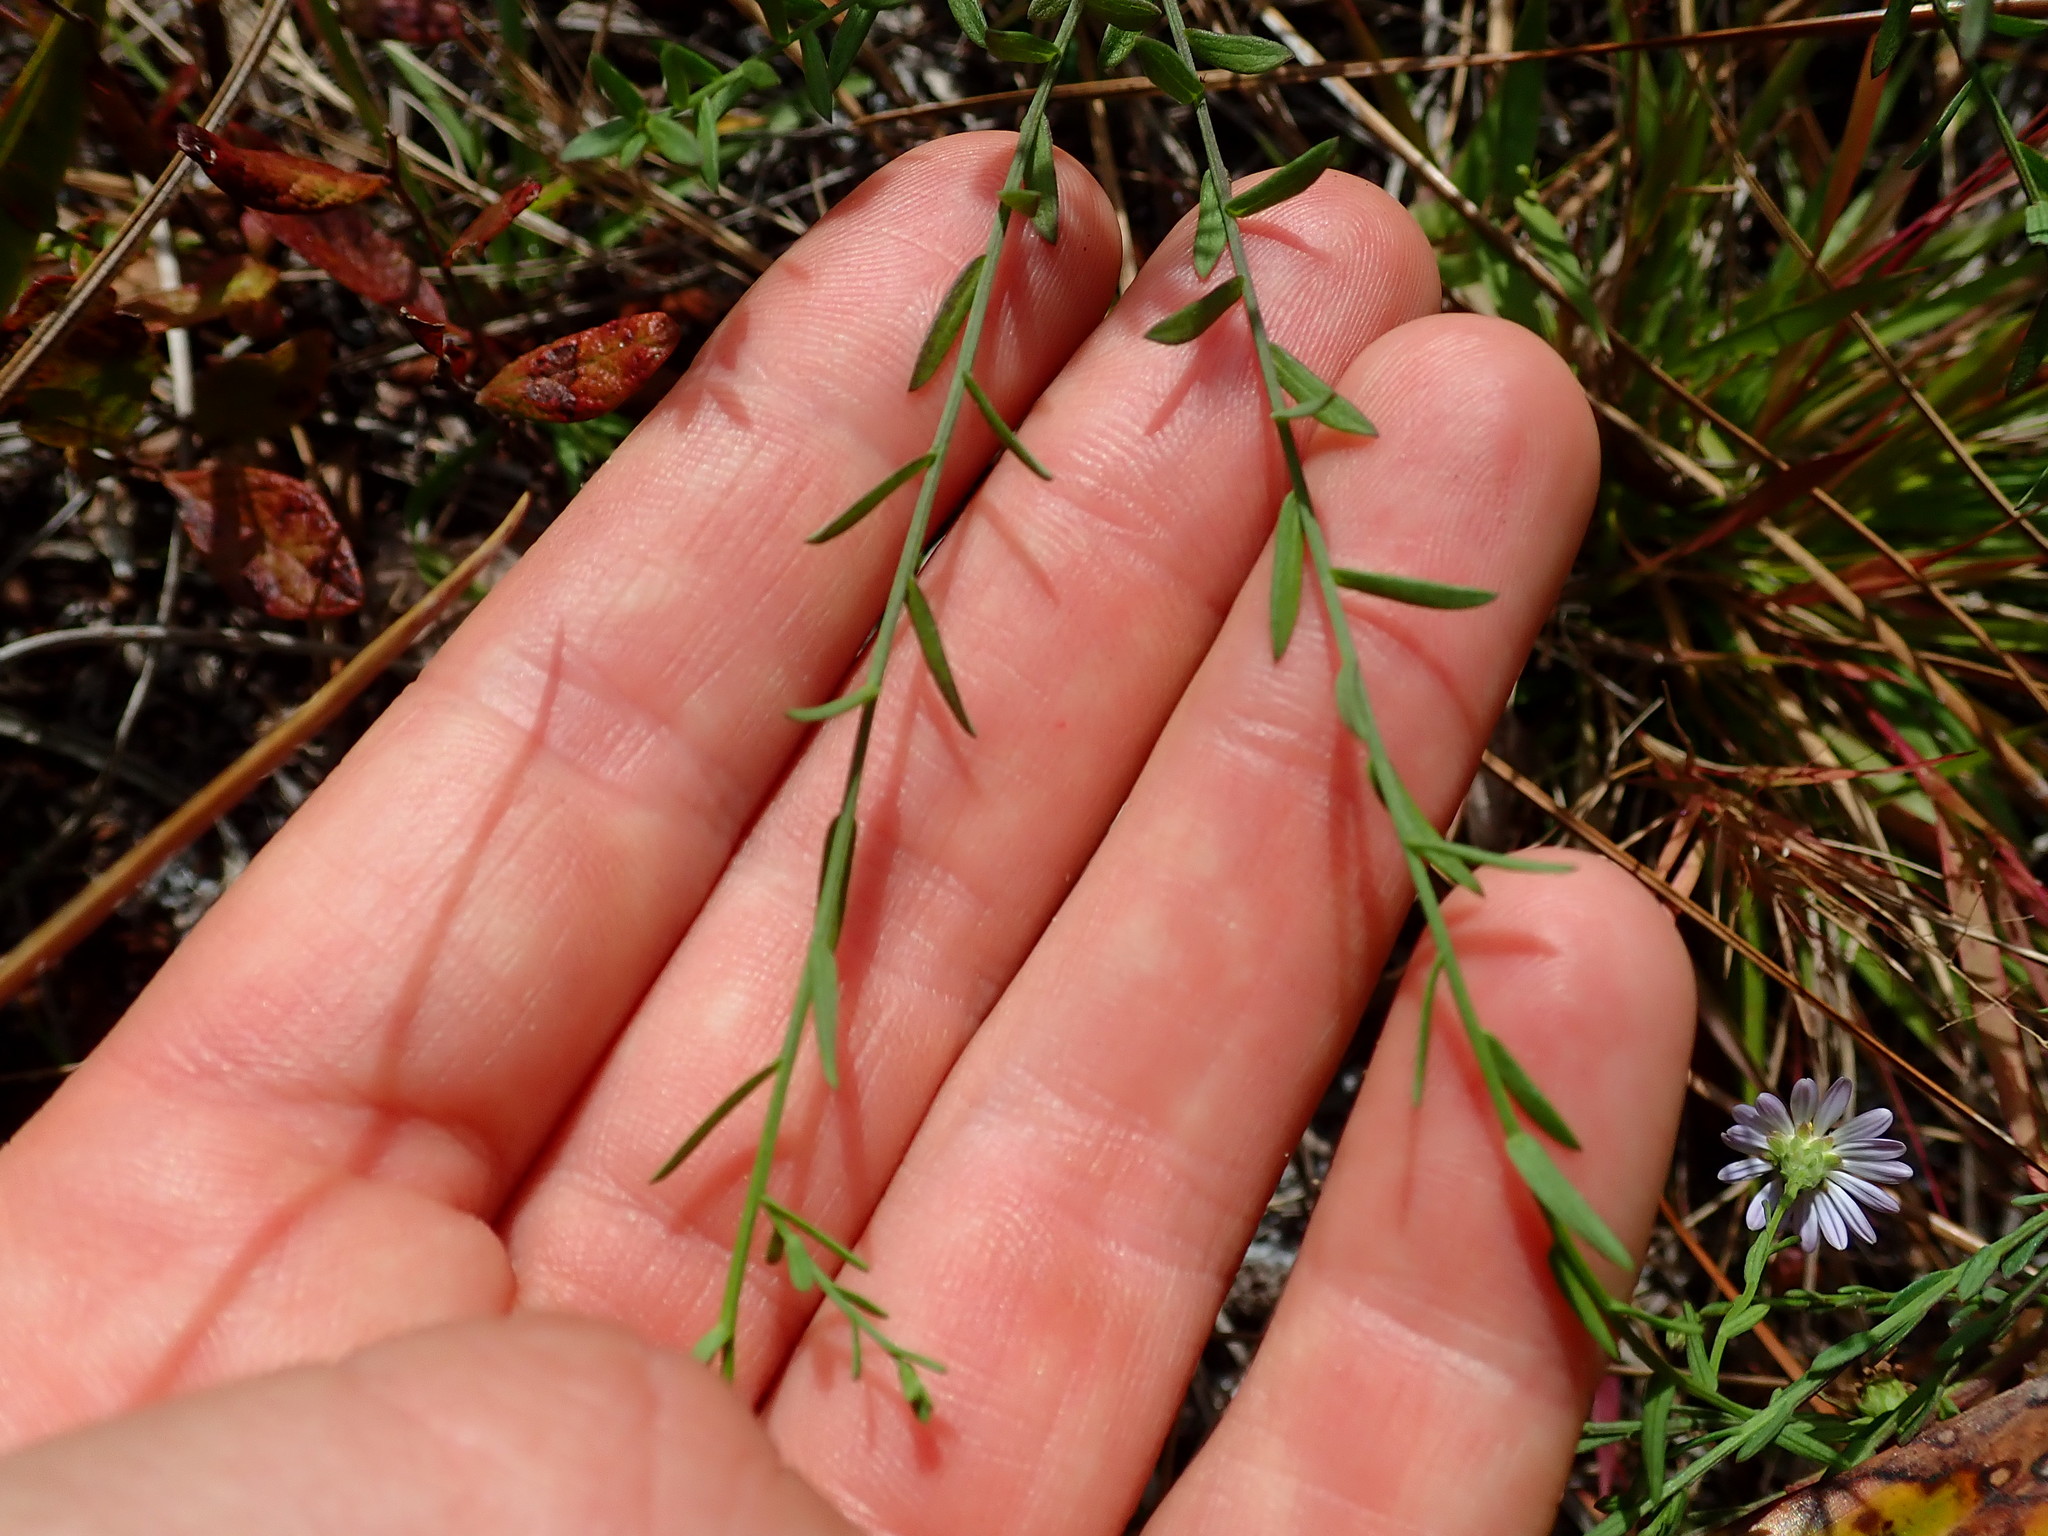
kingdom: Plantae
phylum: Tracheophyta
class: Magnoliopsida
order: Asterales
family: Asteraceae
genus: Symphyotrichum
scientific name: Symphyotrichum dumosum
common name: Bushy aster
